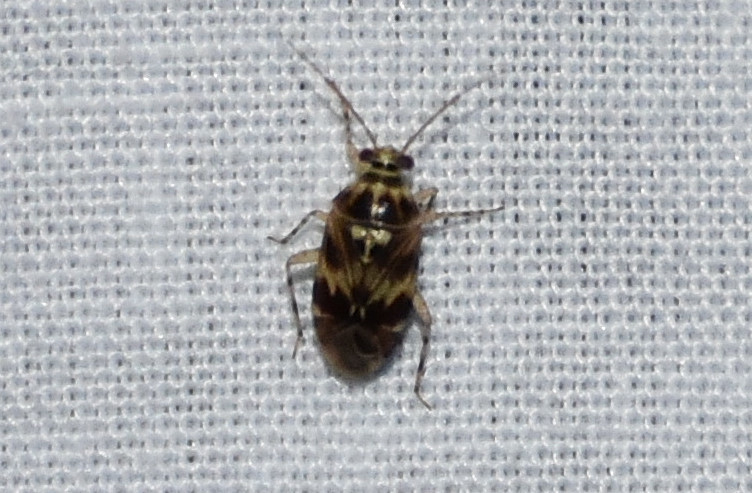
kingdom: Animalia
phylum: Arthropoda
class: Insecta
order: Hemiptera
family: Miridae
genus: Tropidosteptes
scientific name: Tropidosteptes quercicola
